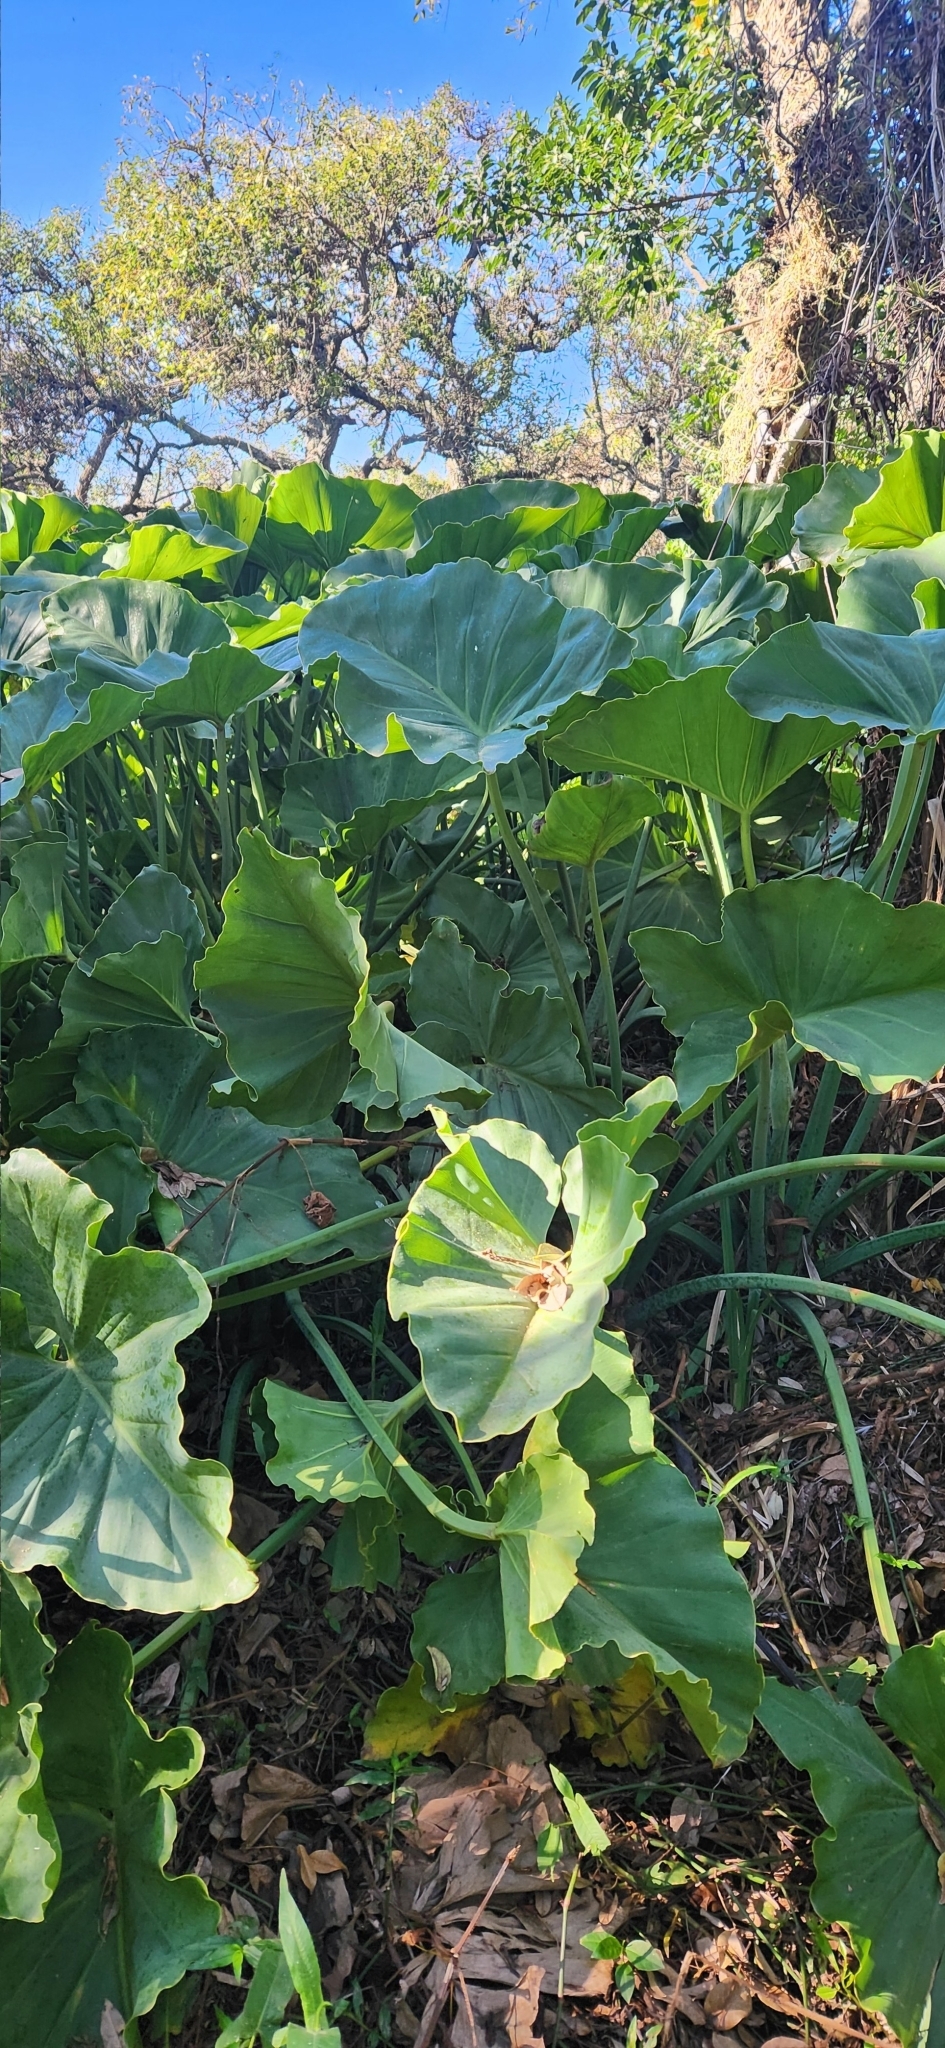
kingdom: Plantae
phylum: Tracheophyta
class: Liliopsida
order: Alismatales
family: Araceae
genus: Thaumatophyllum
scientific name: Thaumatophyllum tweedieanum
